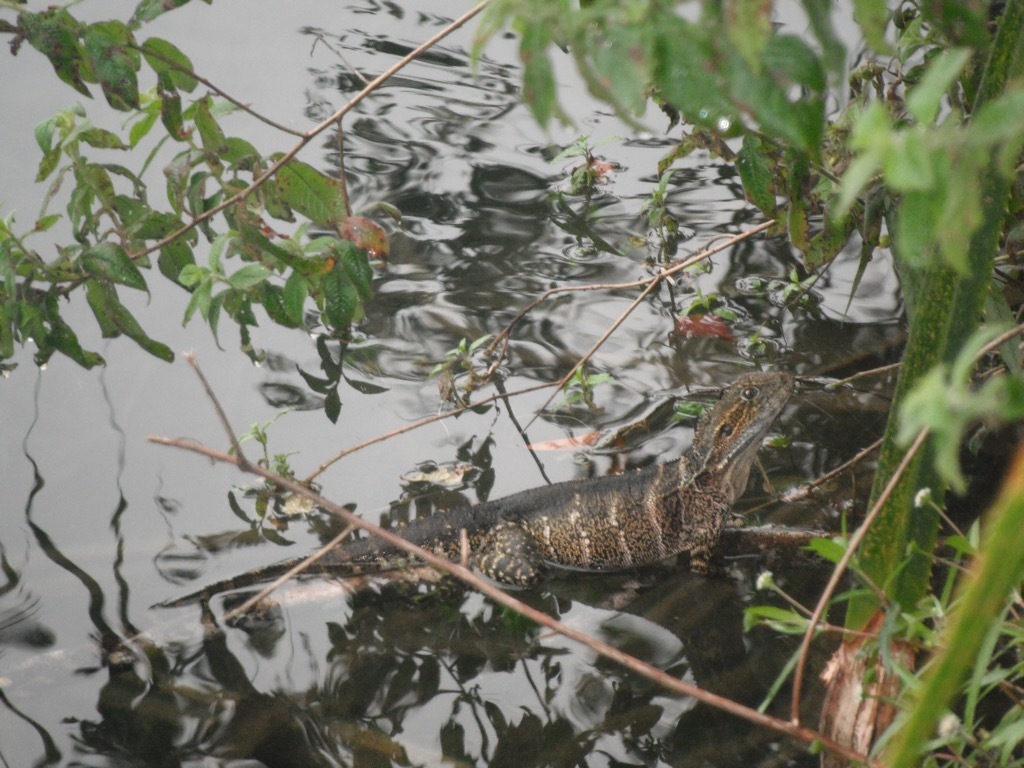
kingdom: Animalia
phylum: Chordata
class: Squamata
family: Agamidae
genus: Intellagama
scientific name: Intellagama lesueurii
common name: Eastern water dragon
